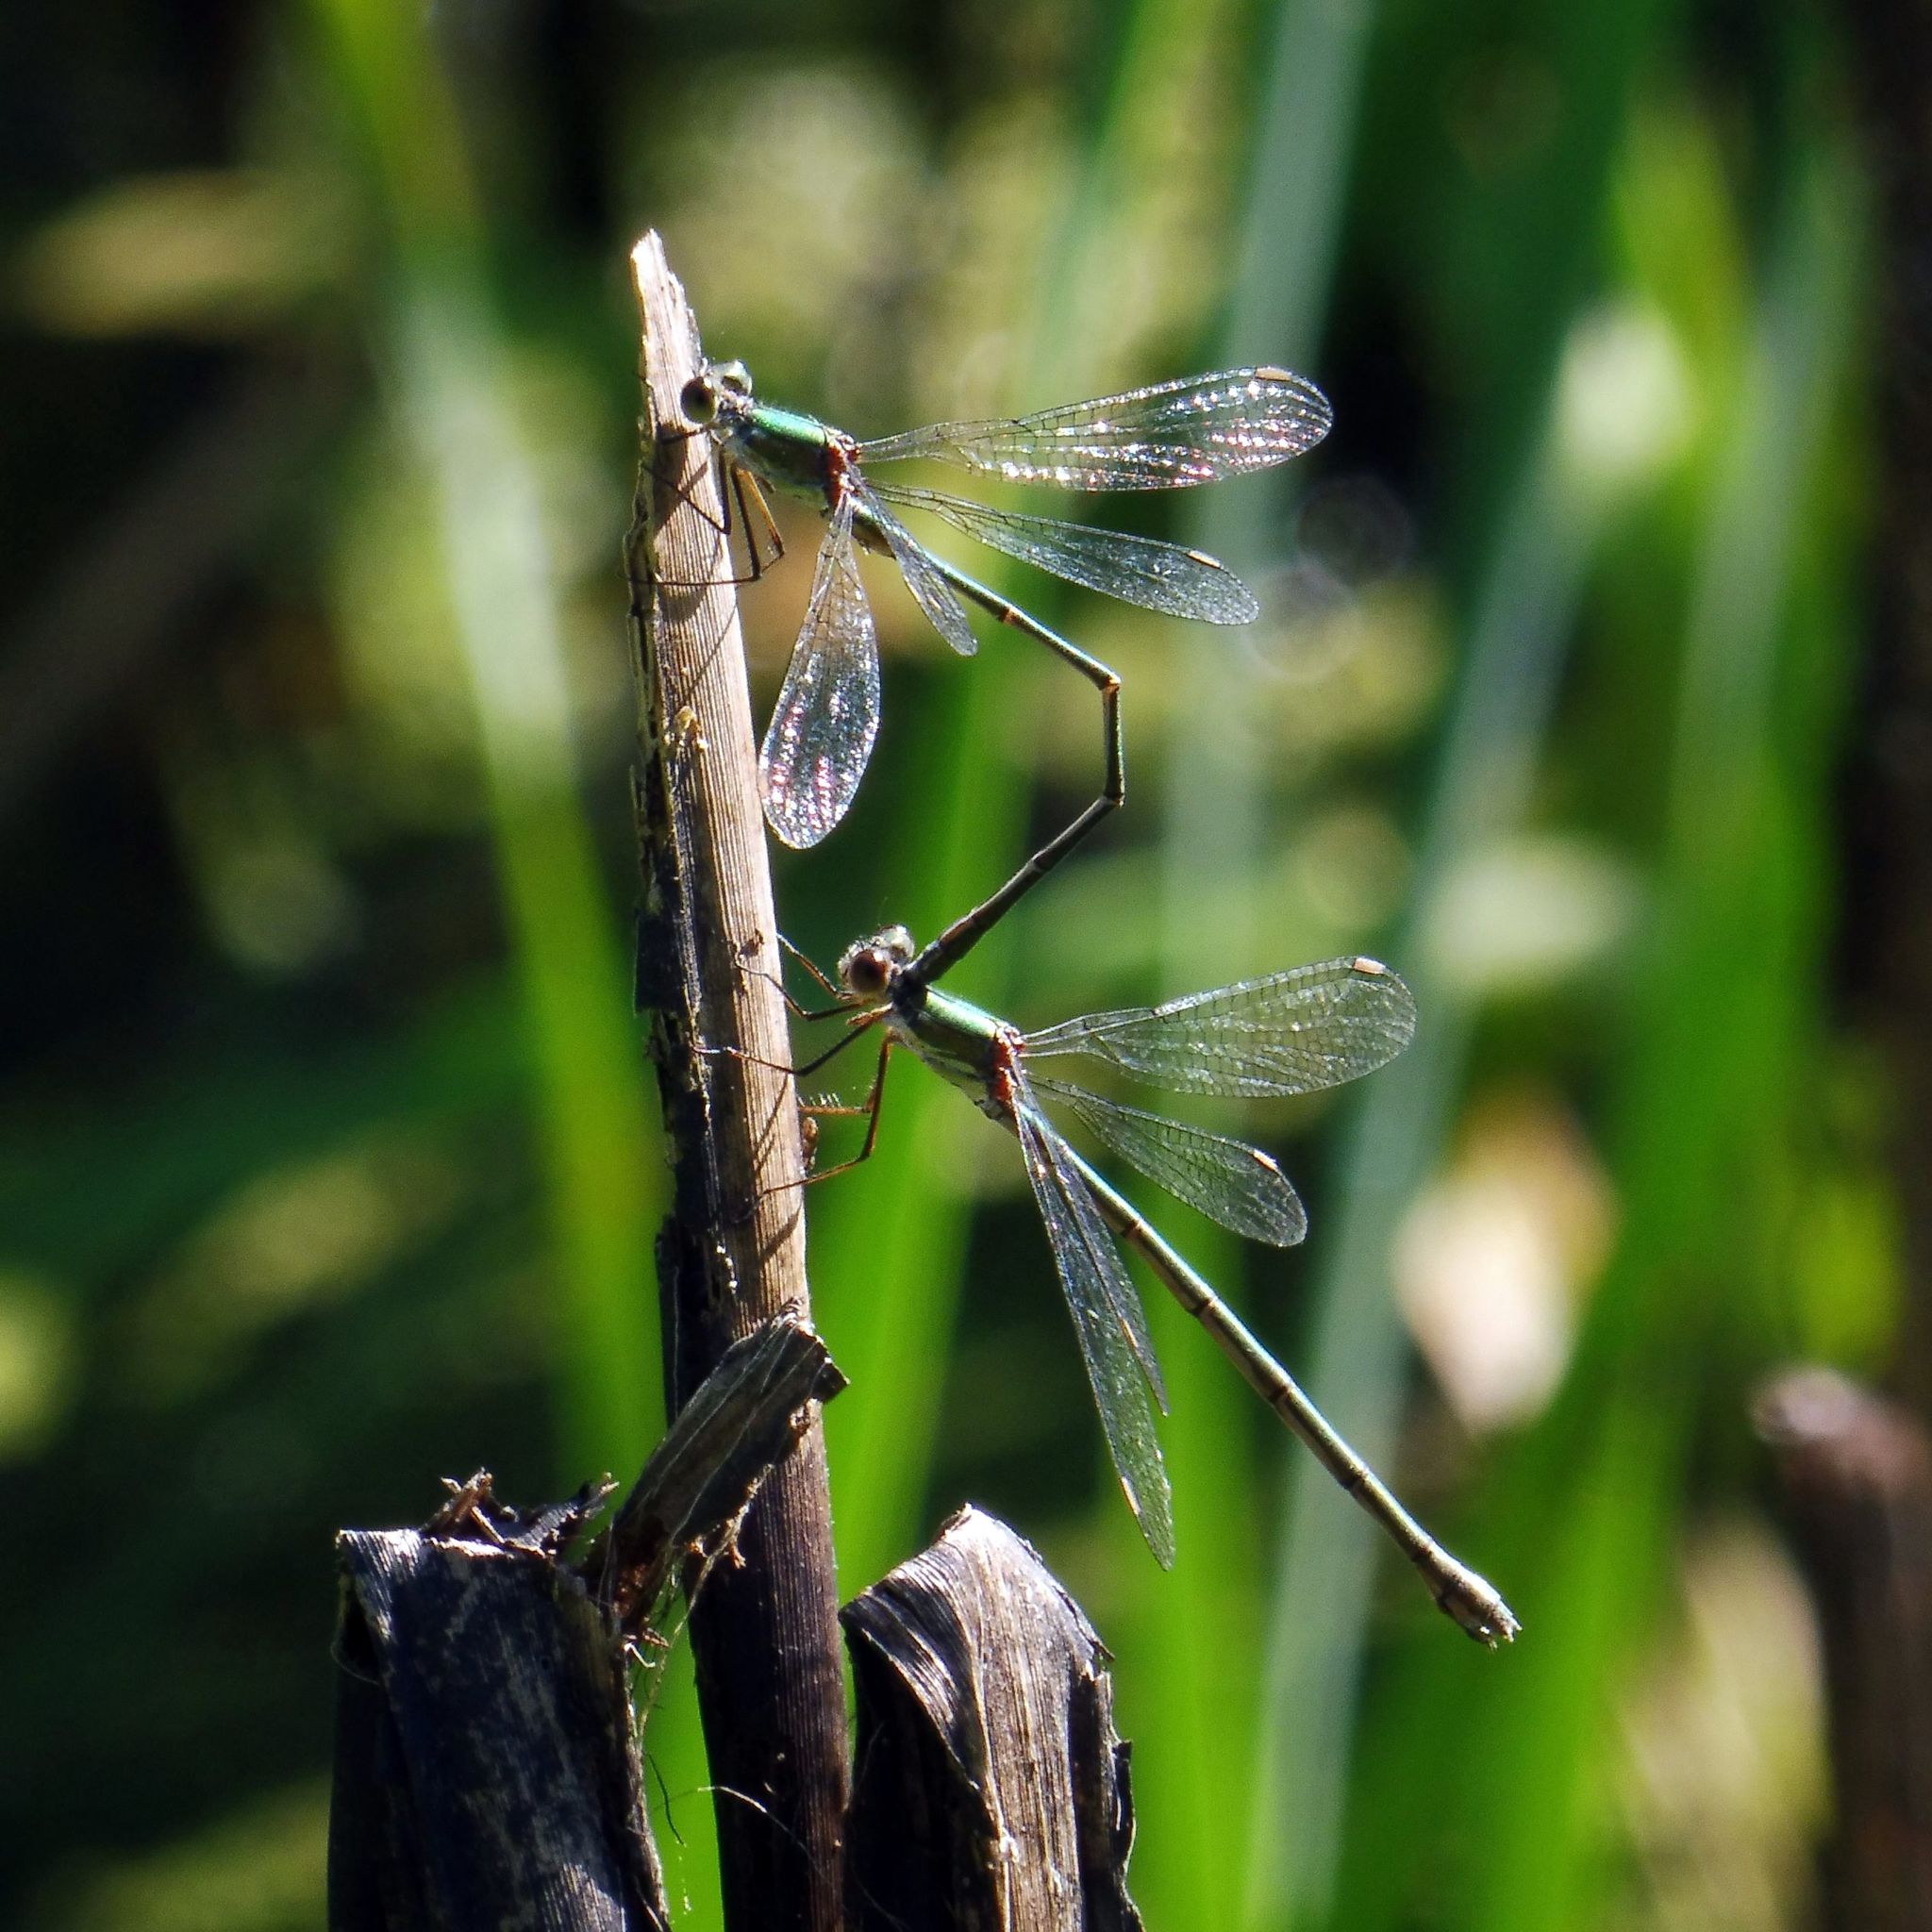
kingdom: Animalia
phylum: Arthropoda
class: Insecta
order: Odonata
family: Lestidae
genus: Chalcolestes
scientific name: Chalcolestes viridis
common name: Green emerald damselfly
